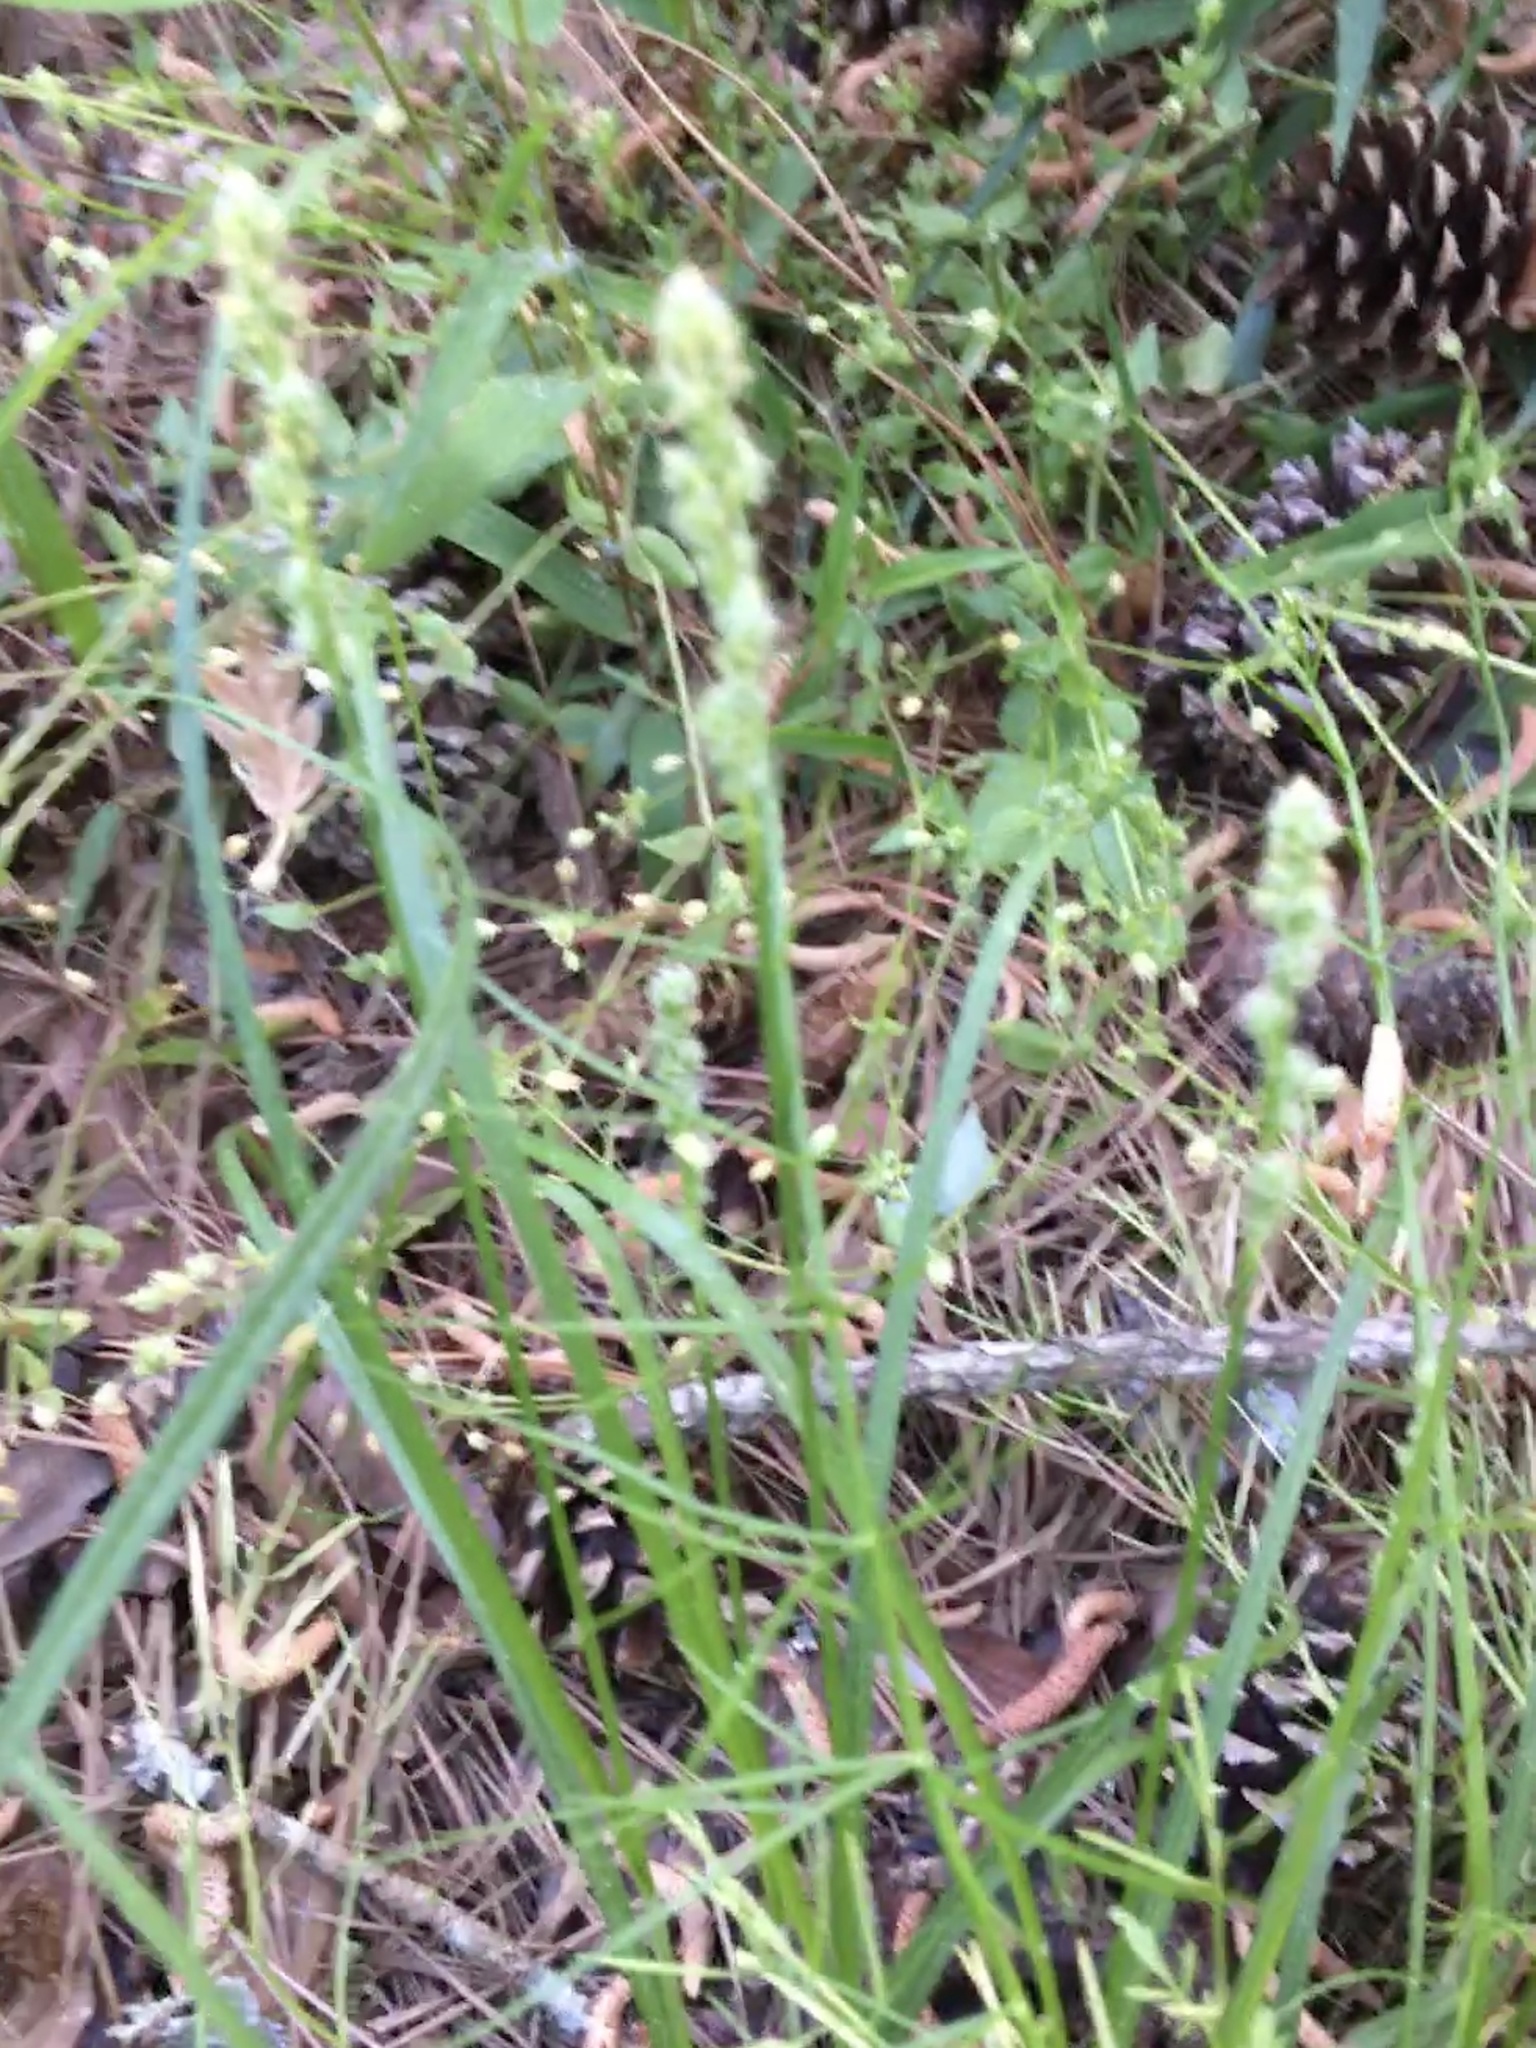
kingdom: Plantae
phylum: Tracheophyta
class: Liliopsida
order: Poales
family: Cyperaceae
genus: Carex
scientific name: Carex vulpinoidea
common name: American fox-sedge
